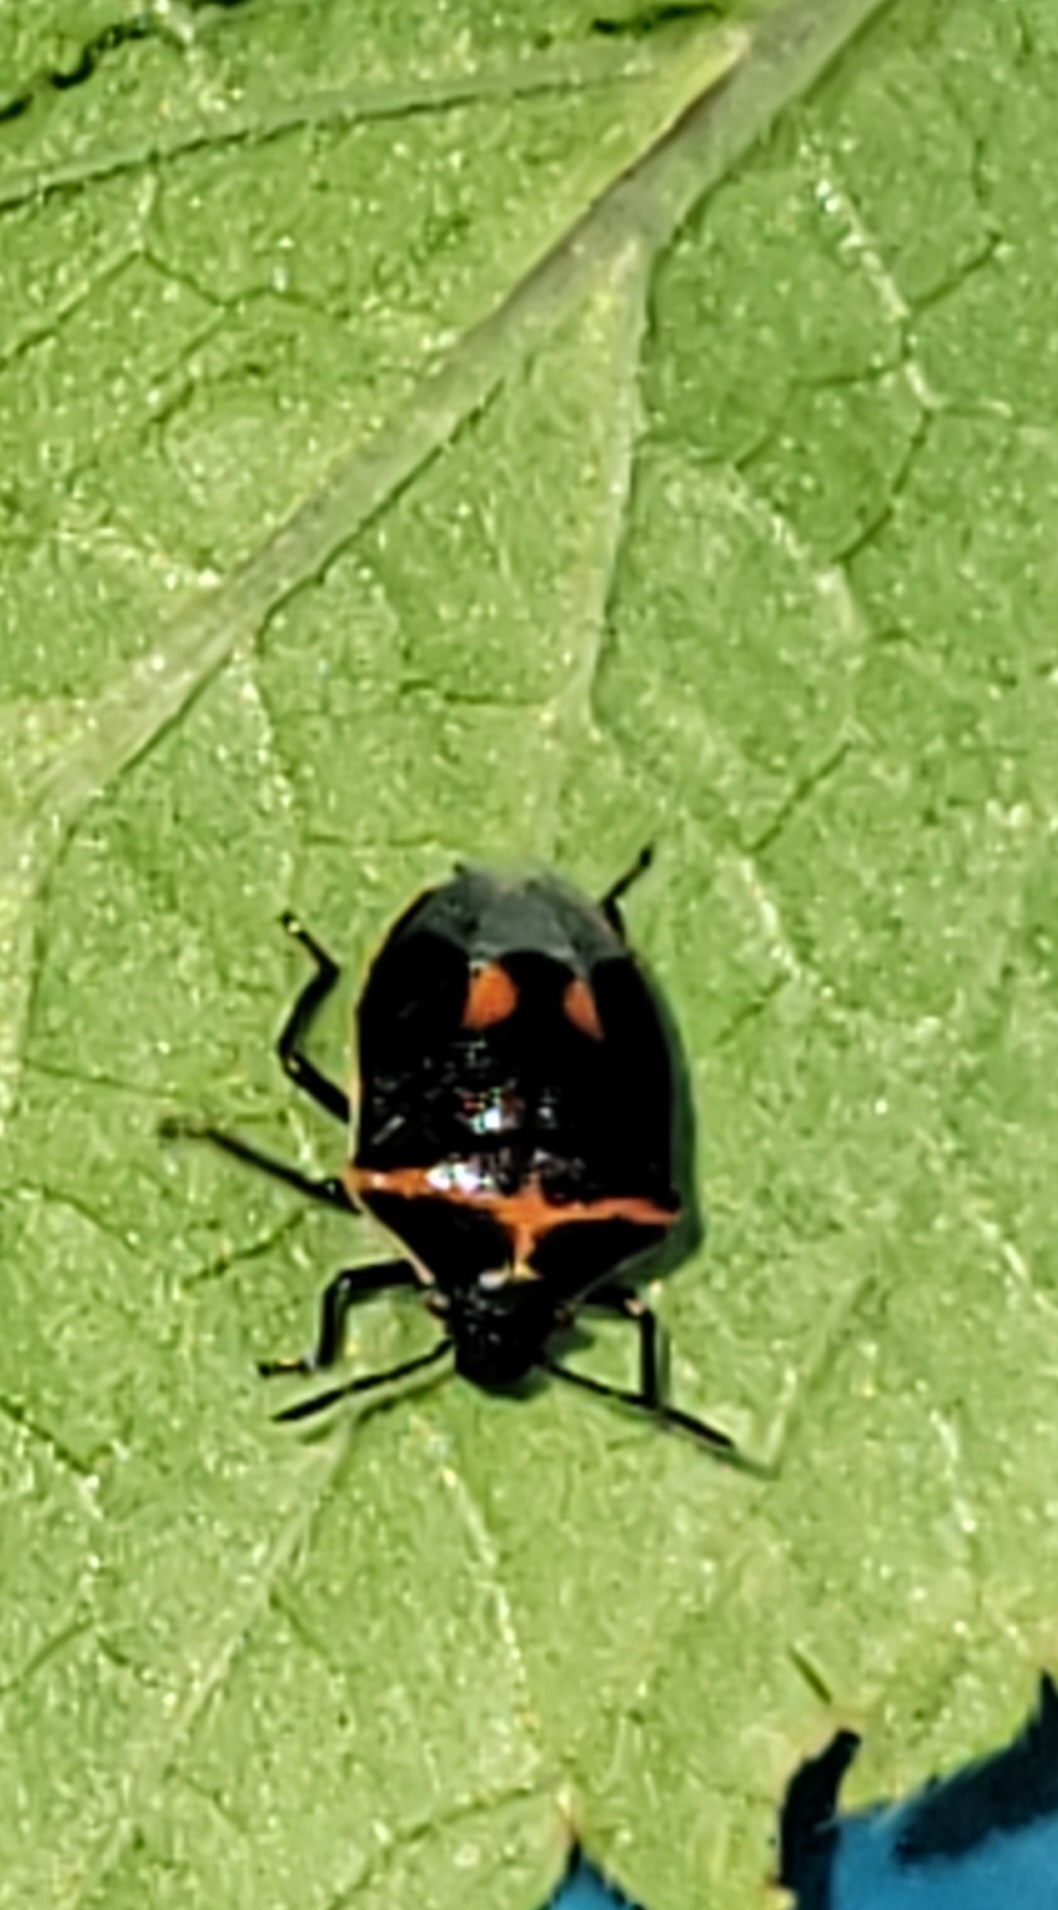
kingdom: Animalia
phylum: Arthropoda
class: Insecta
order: Hemiptera
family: Pentatomidae
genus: Cosmopepla
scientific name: Cosmopepla lintneriana
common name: Twice-stabbed stink bug
